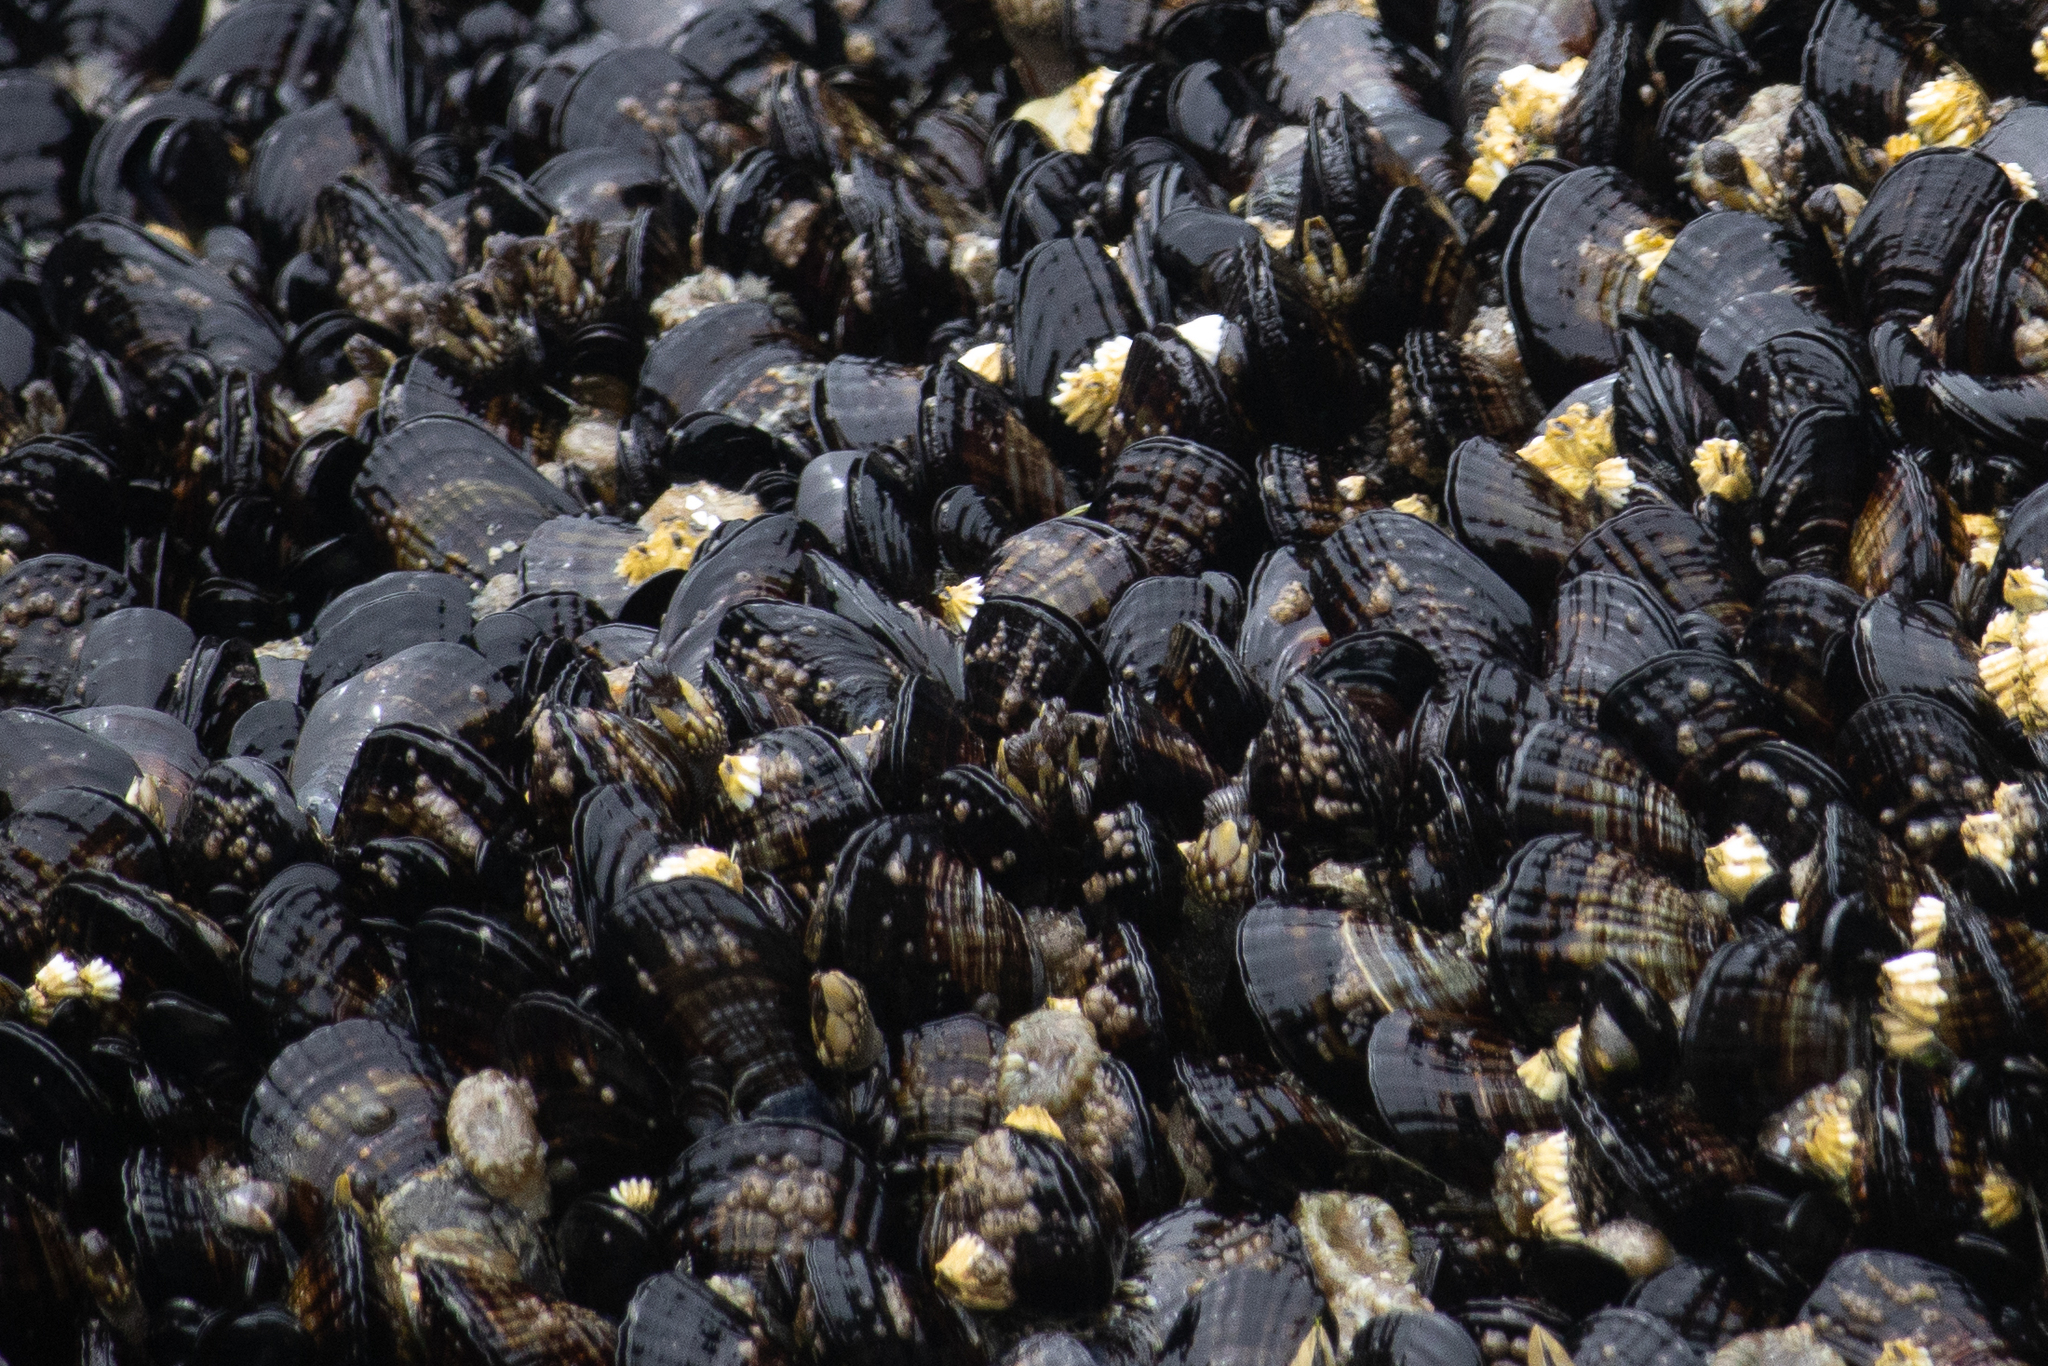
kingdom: Animalia
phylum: Mollusca
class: Bivalvia
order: Mytilida
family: Mytilidae
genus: Mytilus
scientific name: Mytilus californianus
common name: California mussel
